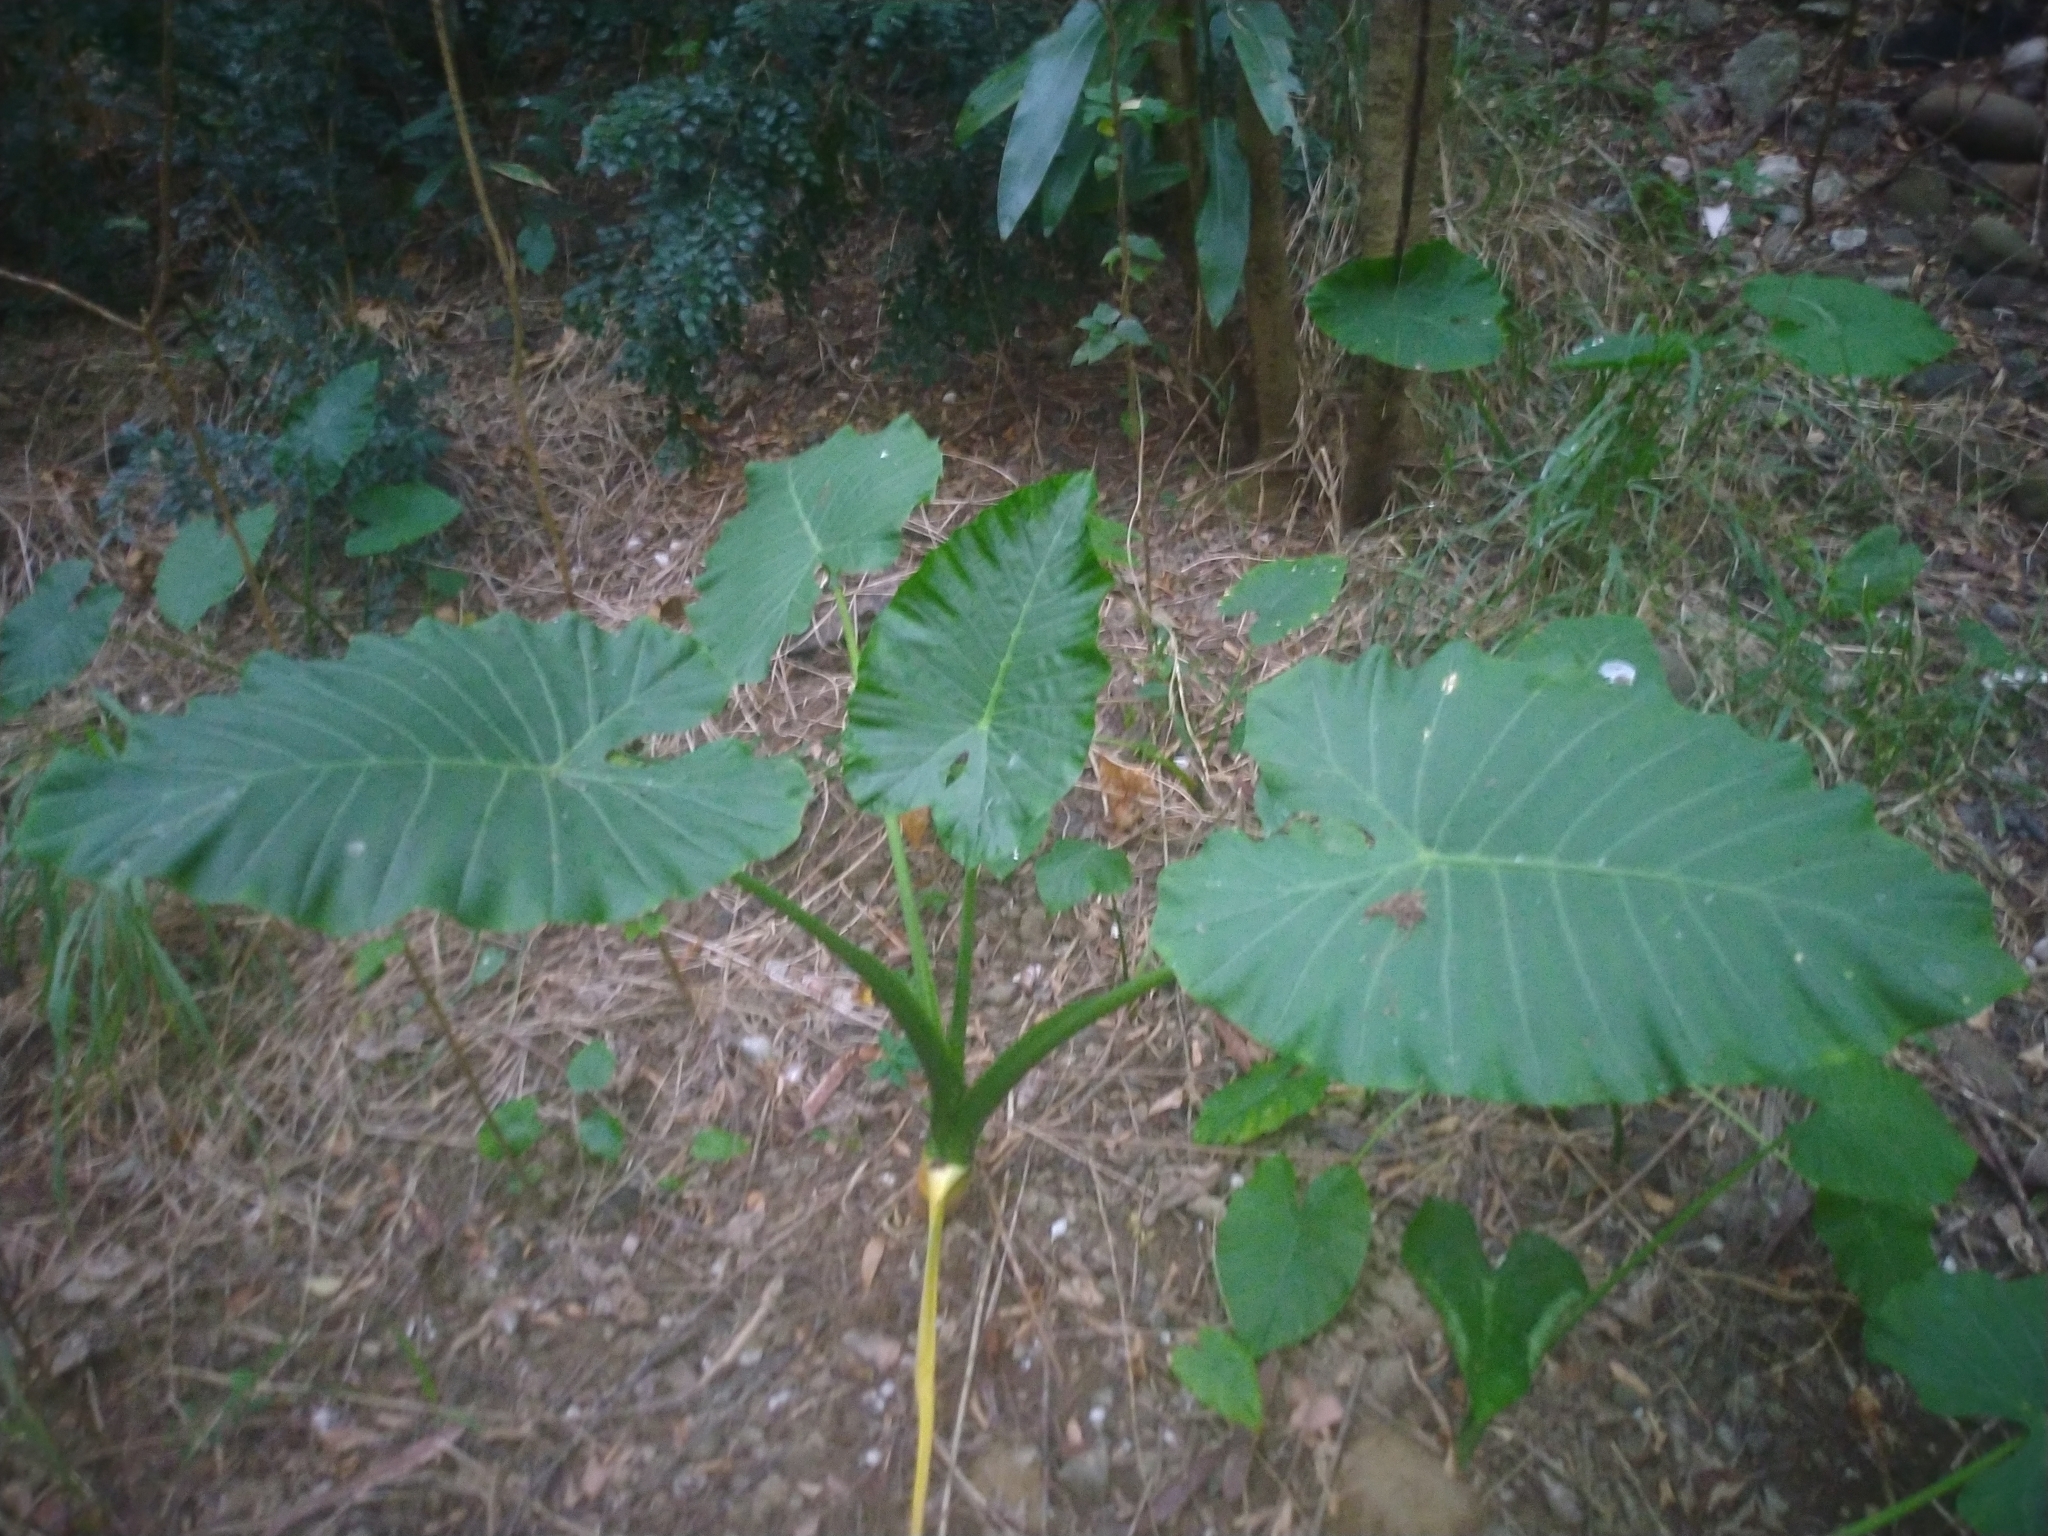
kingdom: Plantae
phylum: Tracheophyta
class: Liliopsida
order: Alismatales
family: Araceae
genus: Alocasia
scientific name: Alocasia odora
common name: Asian taro
